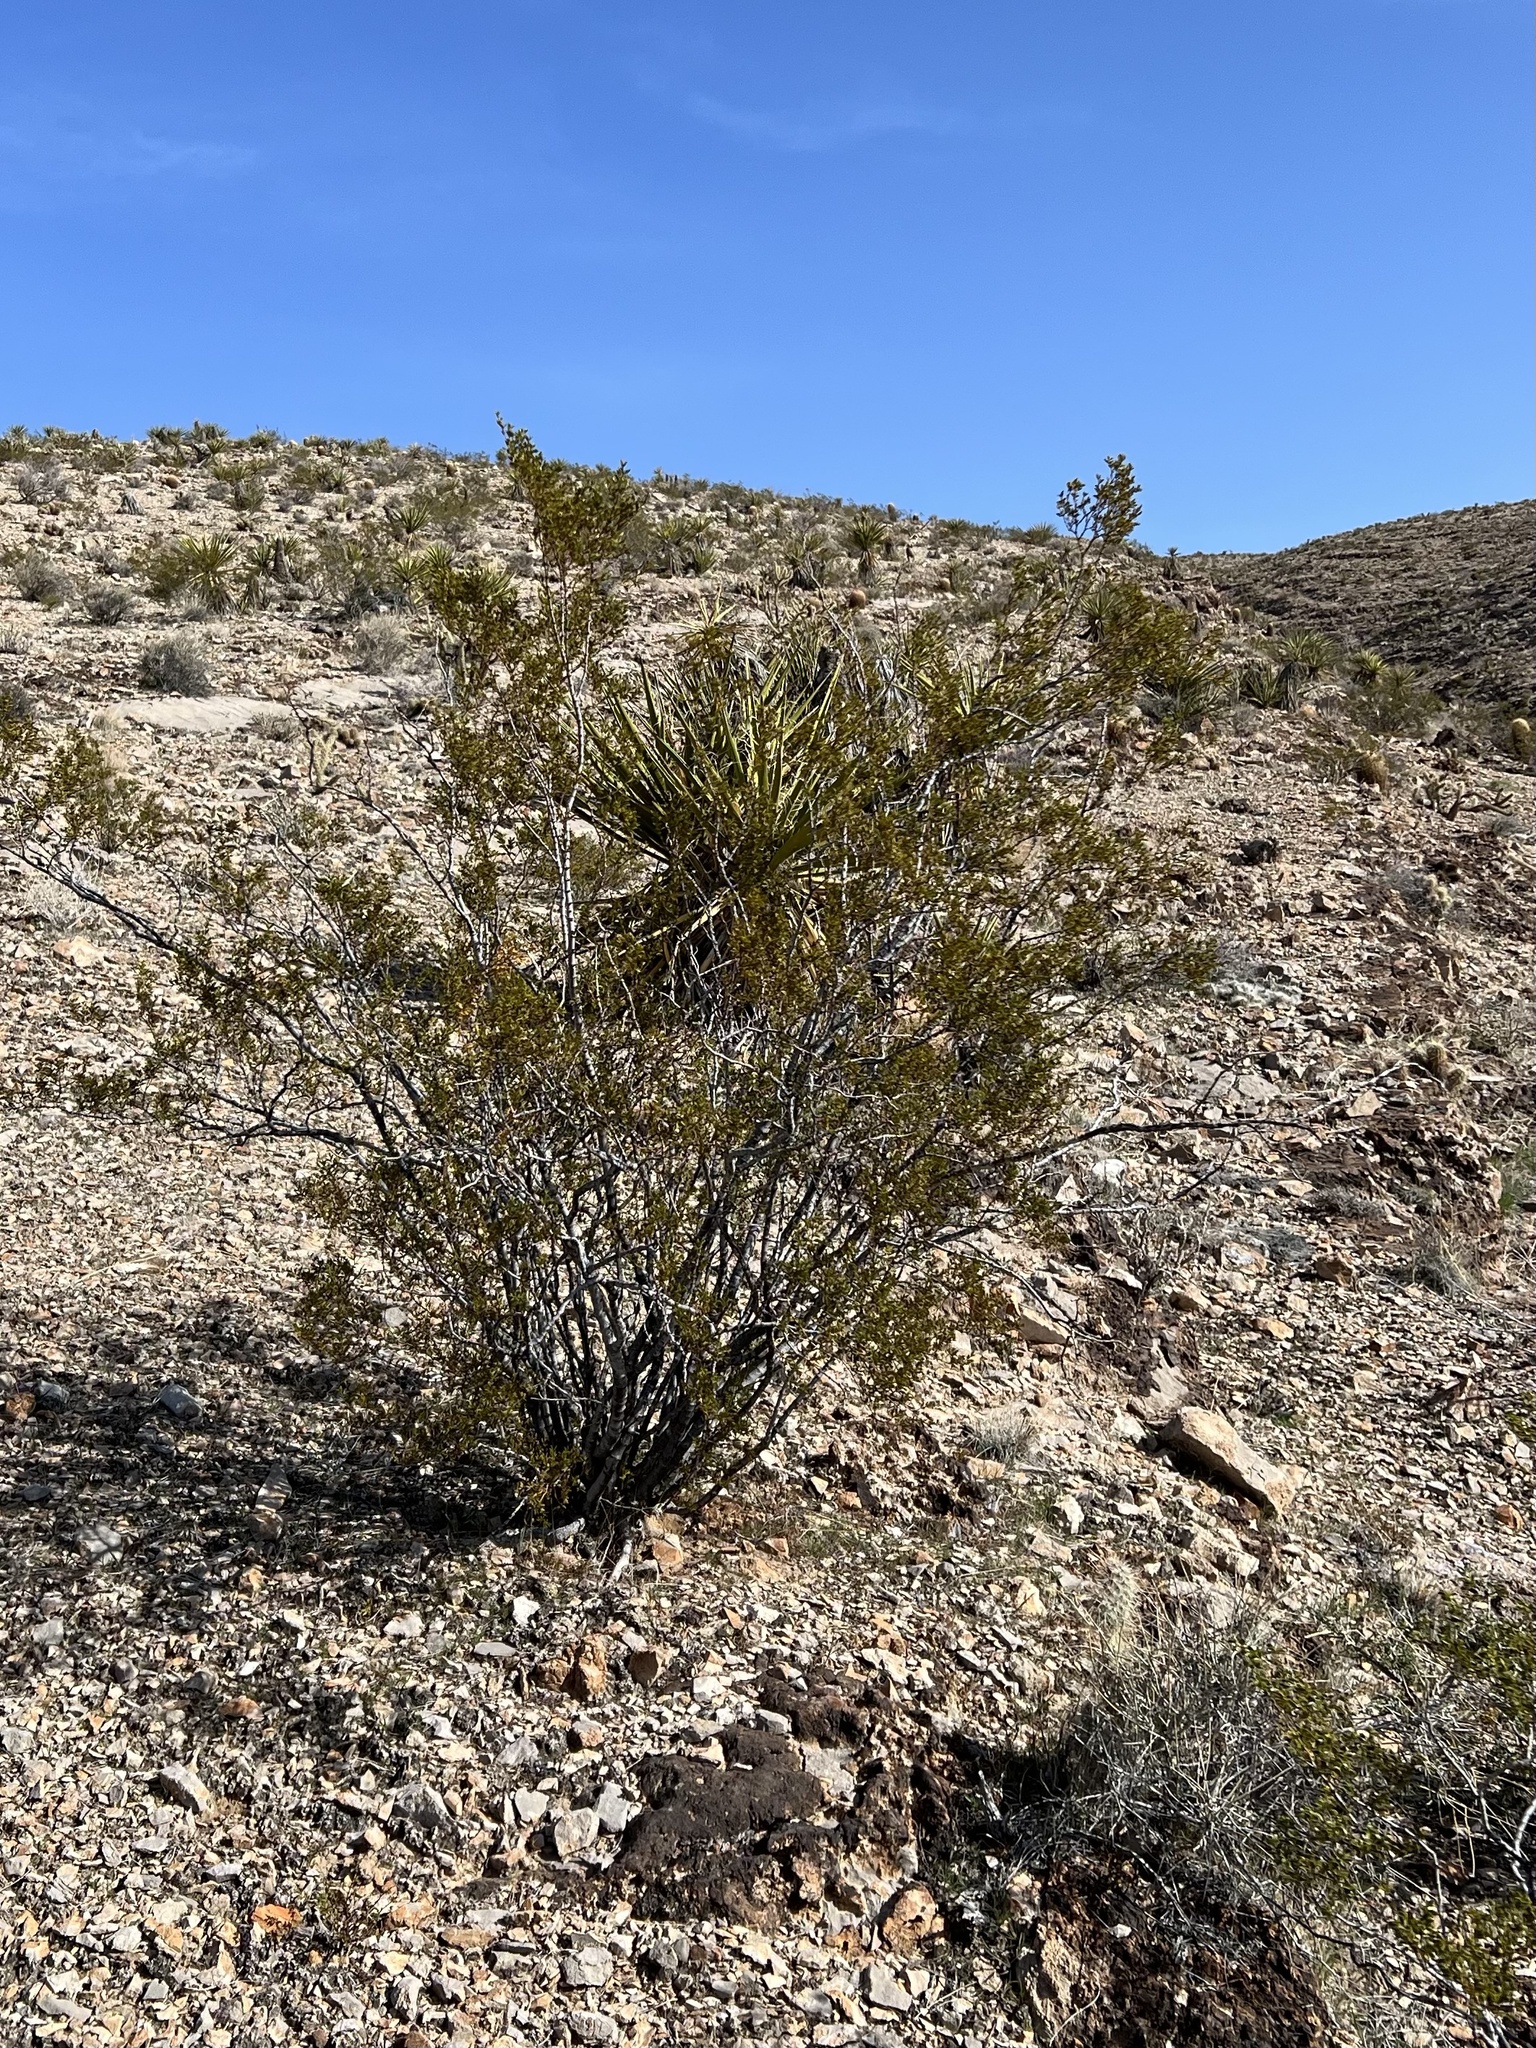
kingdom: Plantae
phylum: Tracheophyta
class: Magnoliopsida
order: Zygophyllales
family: Zygophyllaceae
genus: Larrea
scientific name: Larrea tridentata
